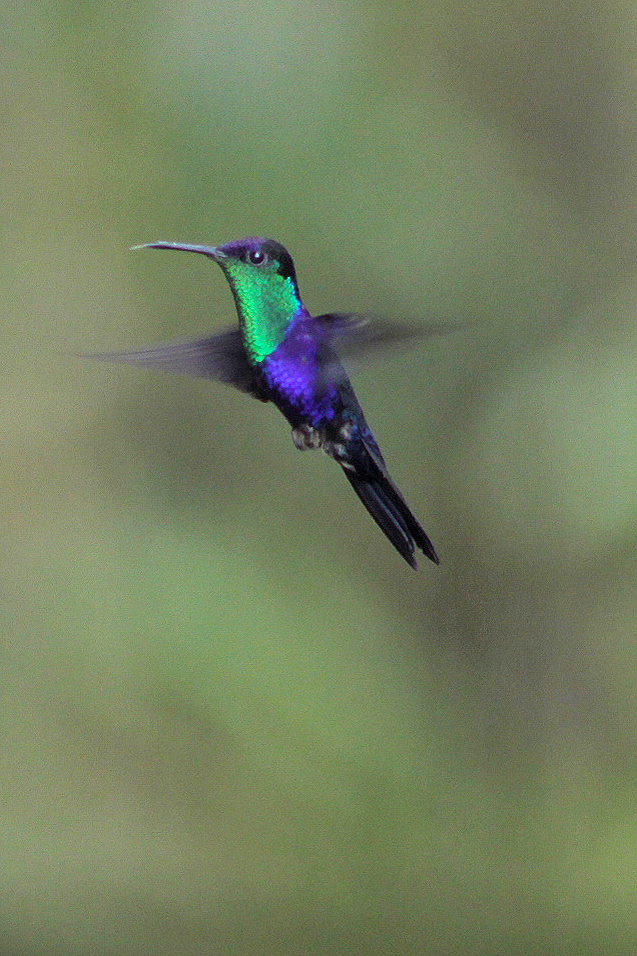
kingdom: Animalia
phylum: Chordata
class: Aves
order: Apodiformes
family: Trochilidae
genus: Thalurania
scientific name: Thalurania colombica
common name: Crowned woodnymph
